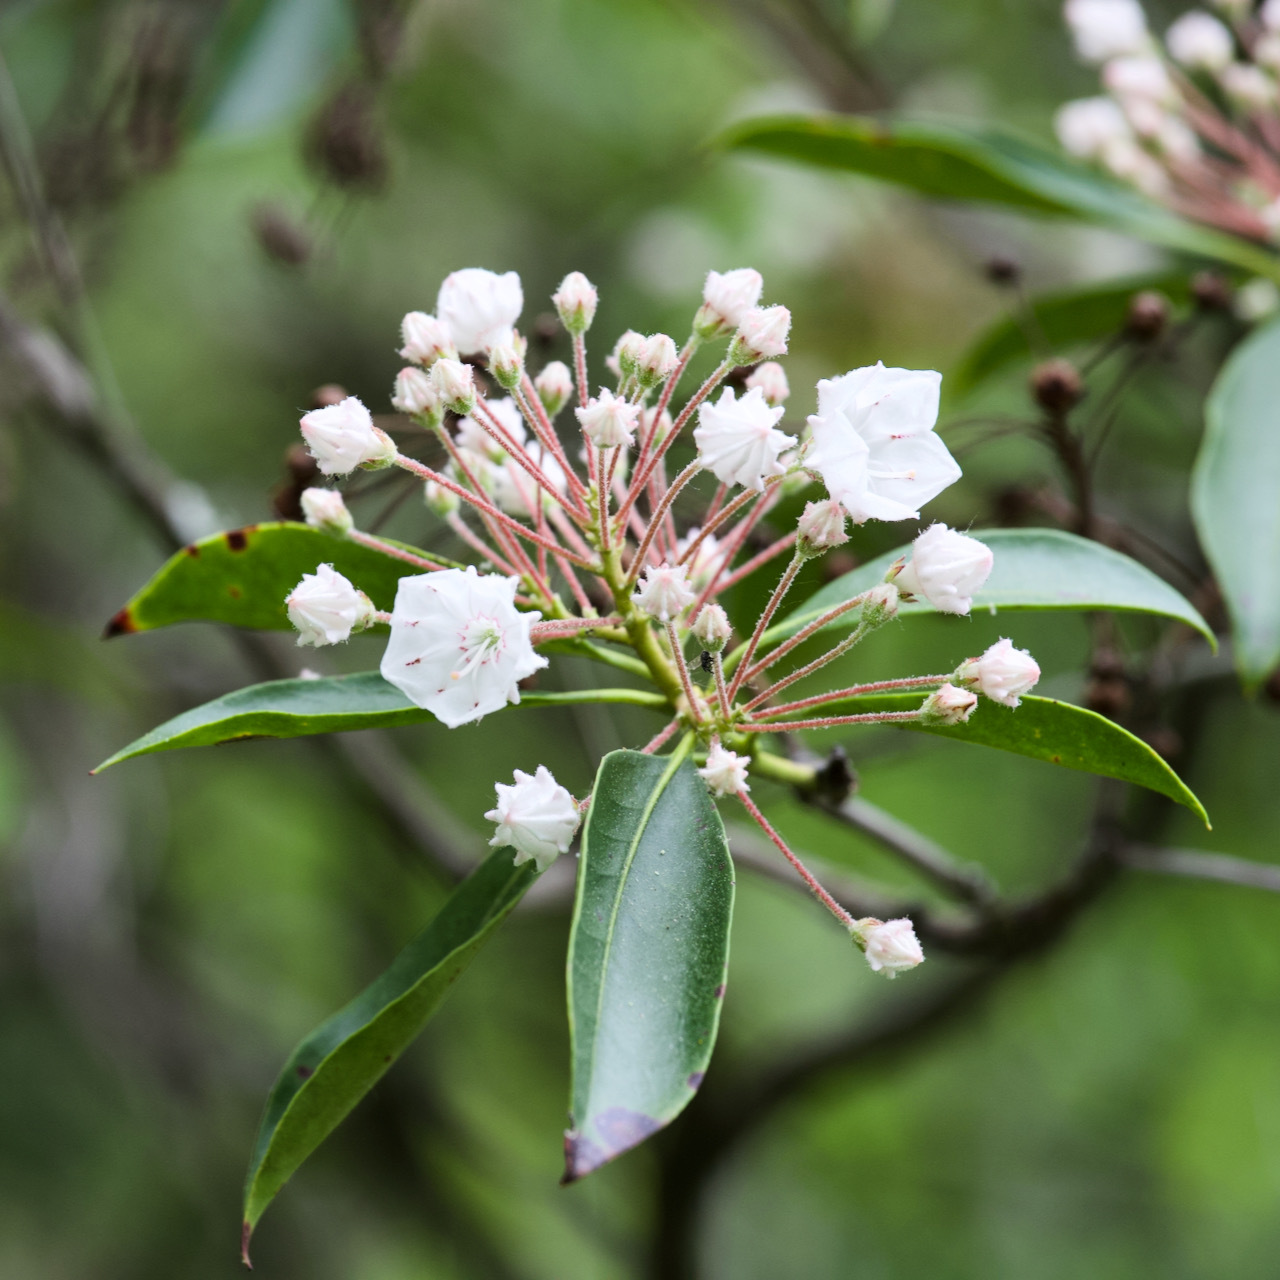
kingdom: Plantae
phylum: Tracheophyta
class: Magnoliopsida
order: Ericales
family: Ericaceae
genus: Kalmia
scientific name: Kalmia latifolia
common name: Mountain-laurel
